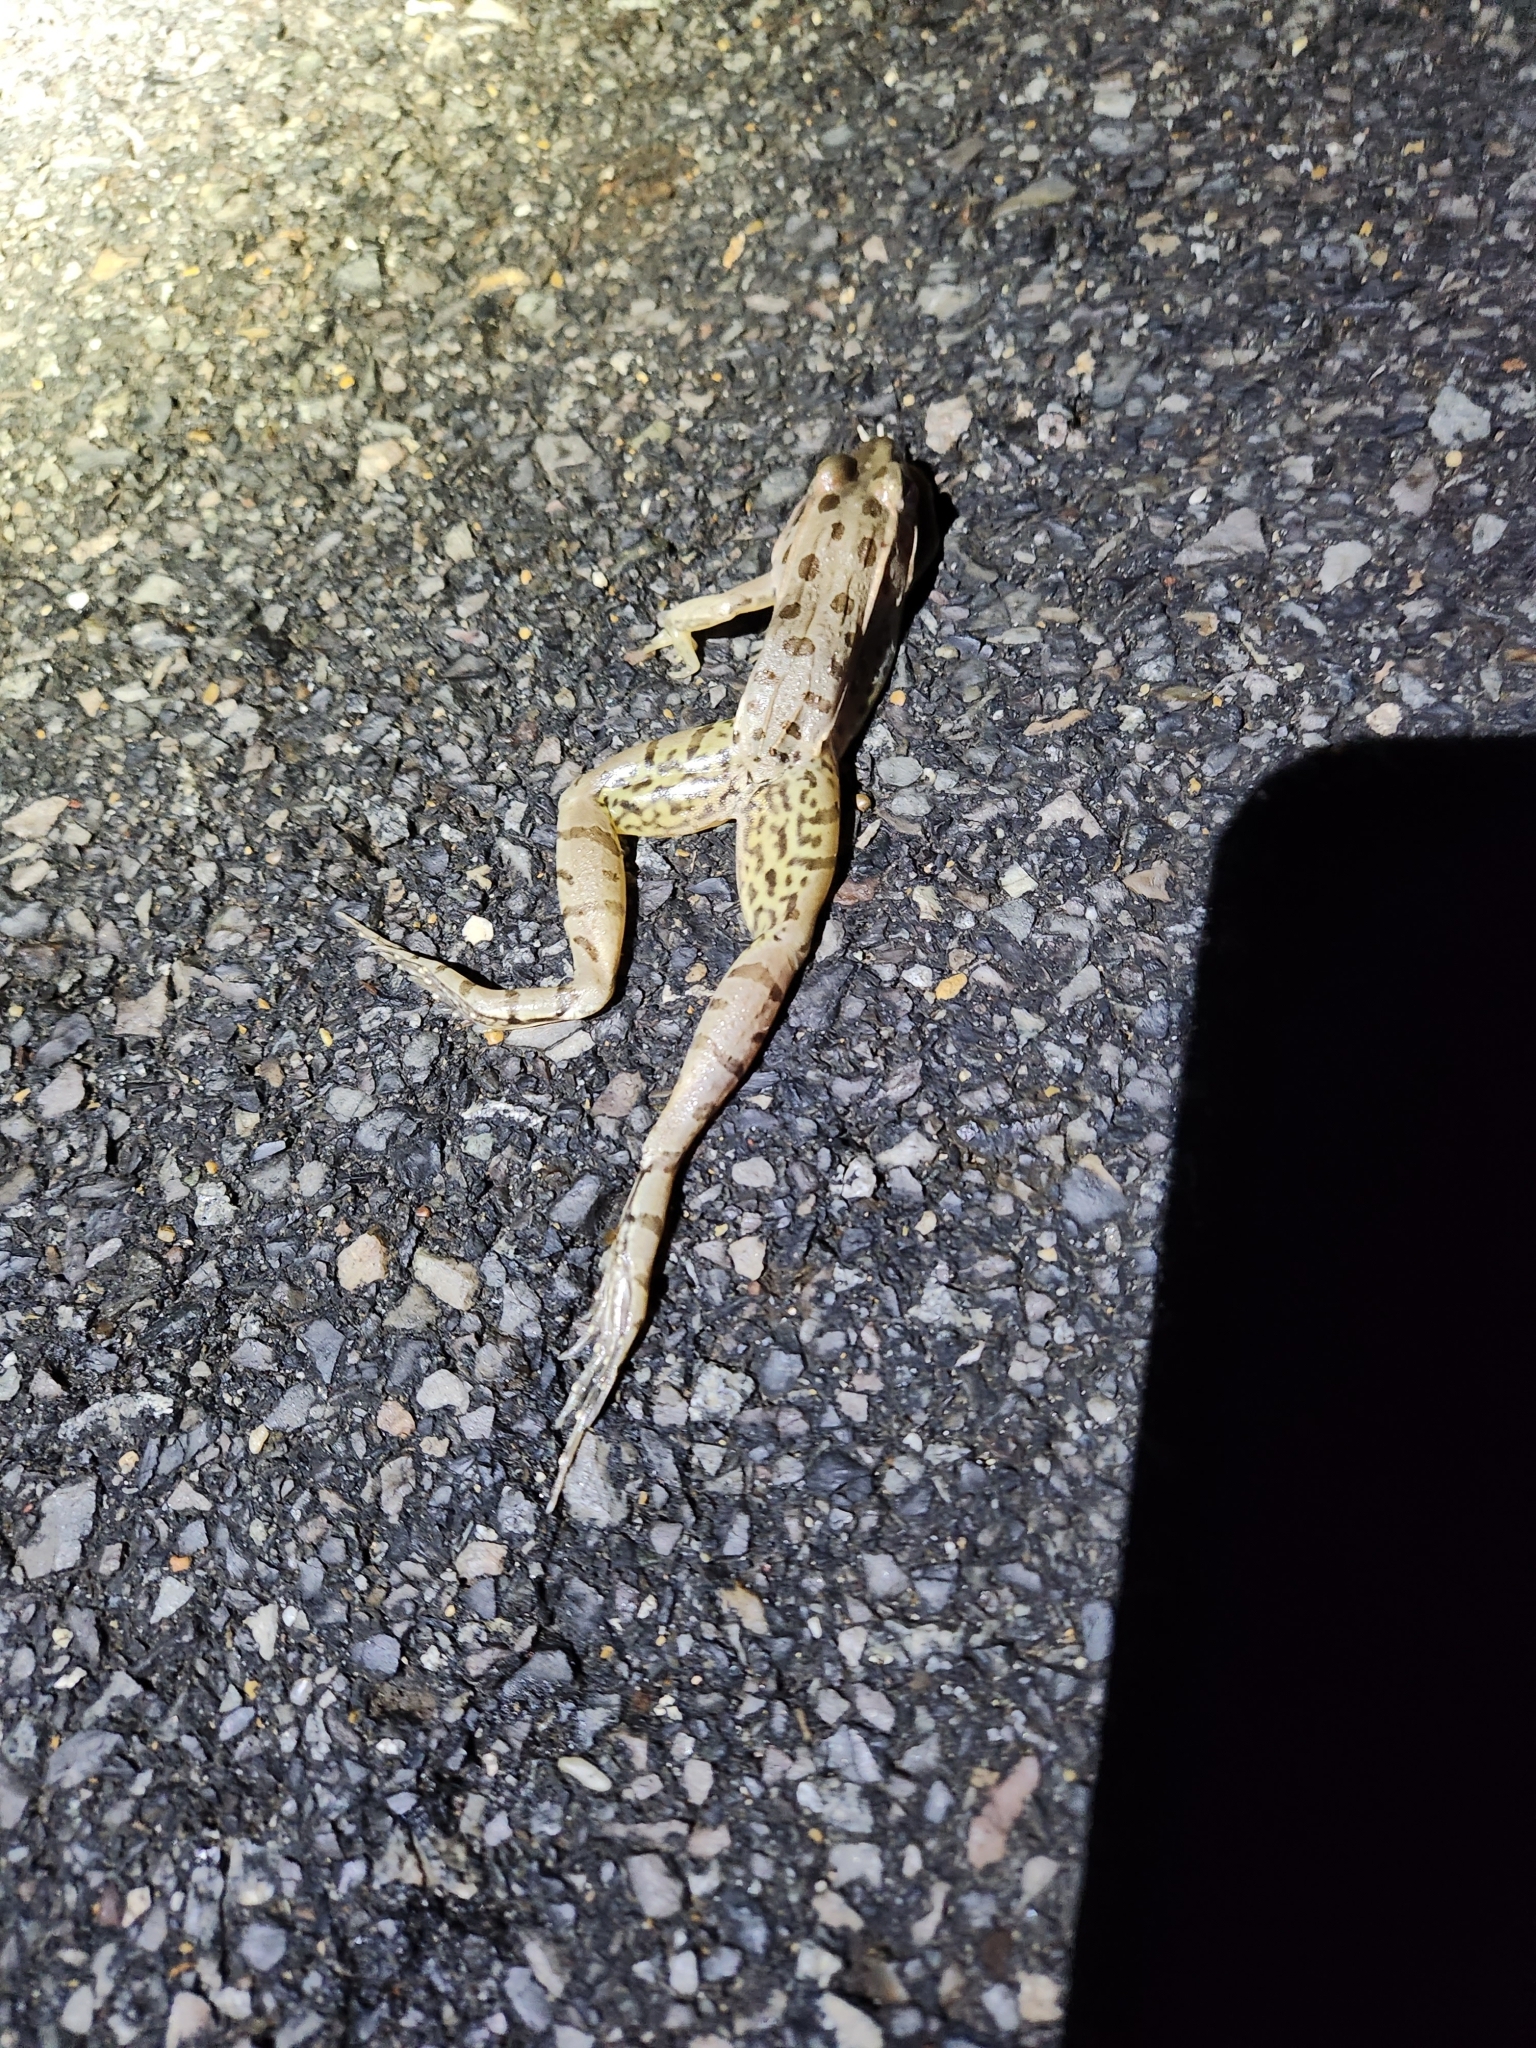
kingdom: Animalia
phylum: Chordata
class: Amphibia
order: Anura
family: Ranidae
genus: Lithobates
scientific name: Lithobates sphenocephalus
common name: Southern leopard frog
